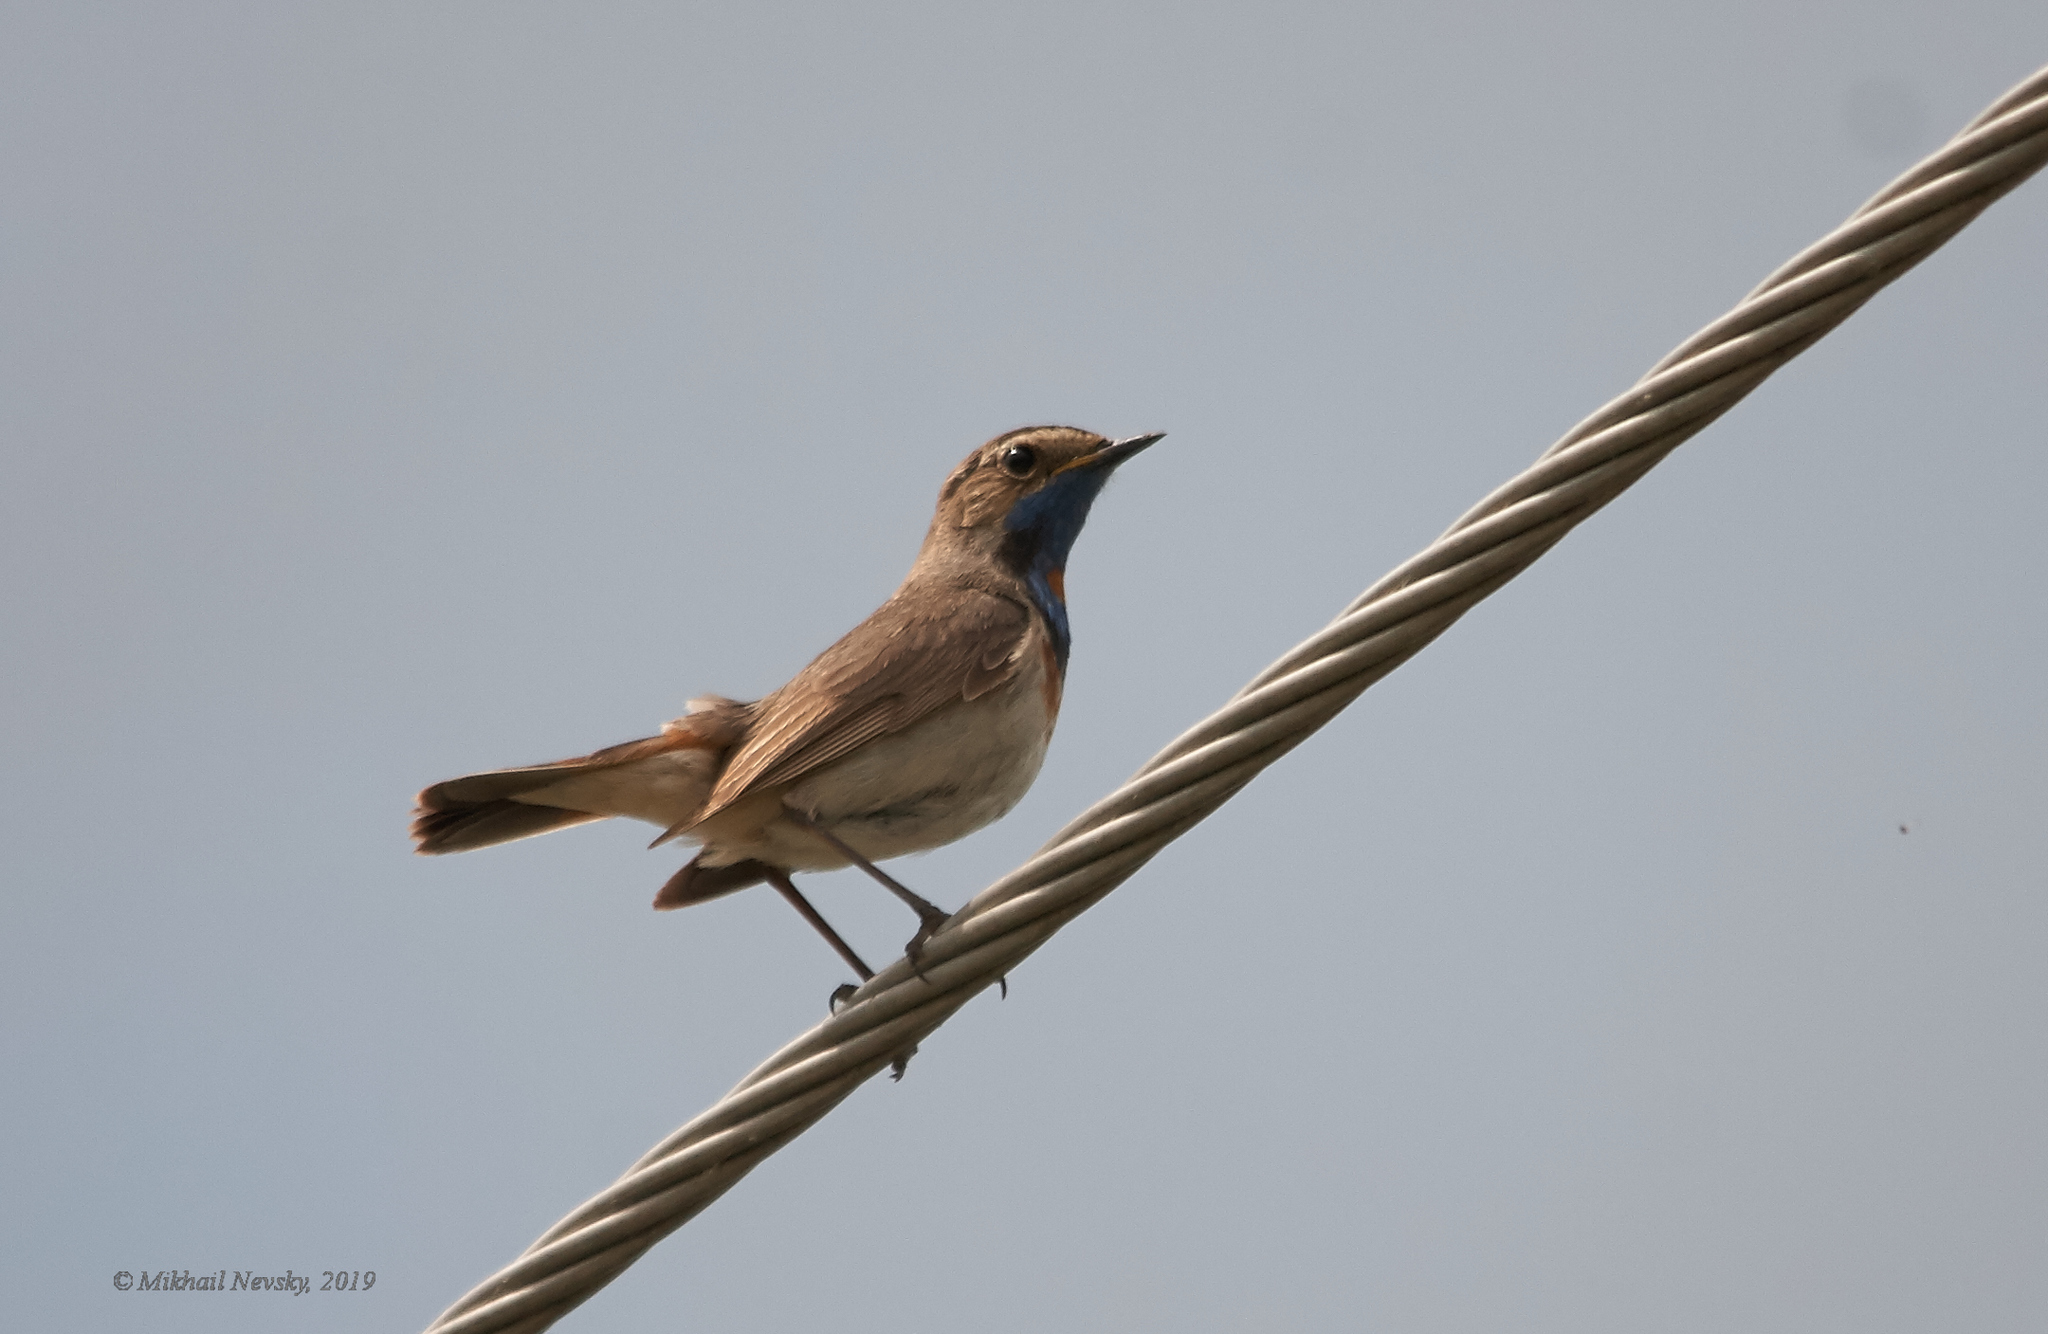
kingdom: Animalia
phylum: Chordata
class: Aves
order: Passeriformes
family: Muscicapidae
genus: Luscinia
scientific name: Luscinia svecica
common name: Bluethroat
